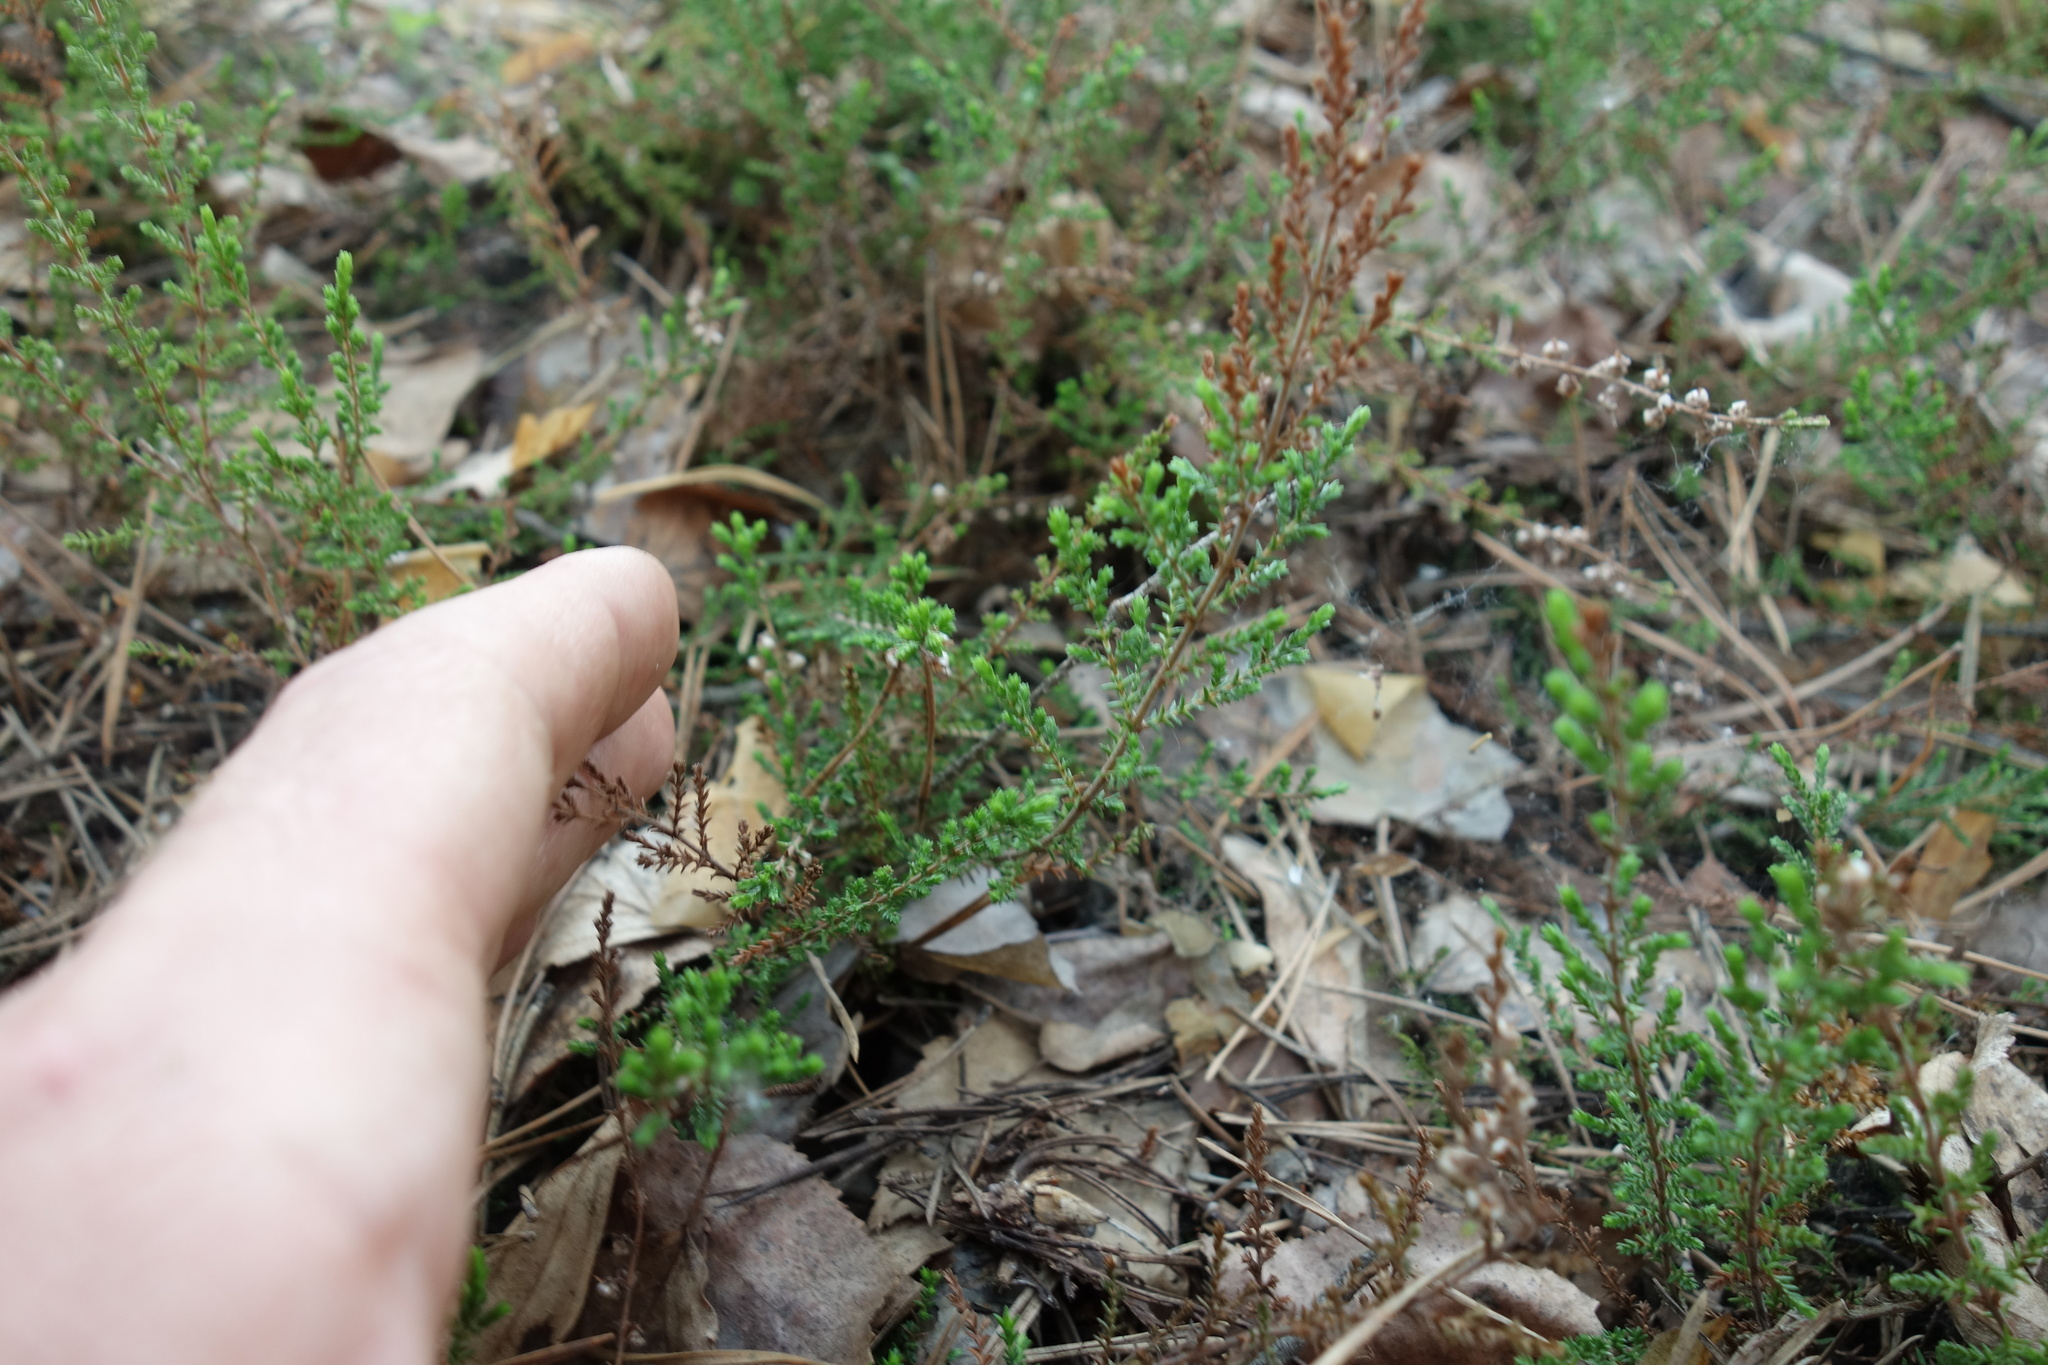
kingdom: Plantae
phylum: Tracheophyta
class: Magnoliopsida
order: Ericales
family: Ericaceae
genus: Calluna
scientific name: Calluna vulgaris
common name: Heather
